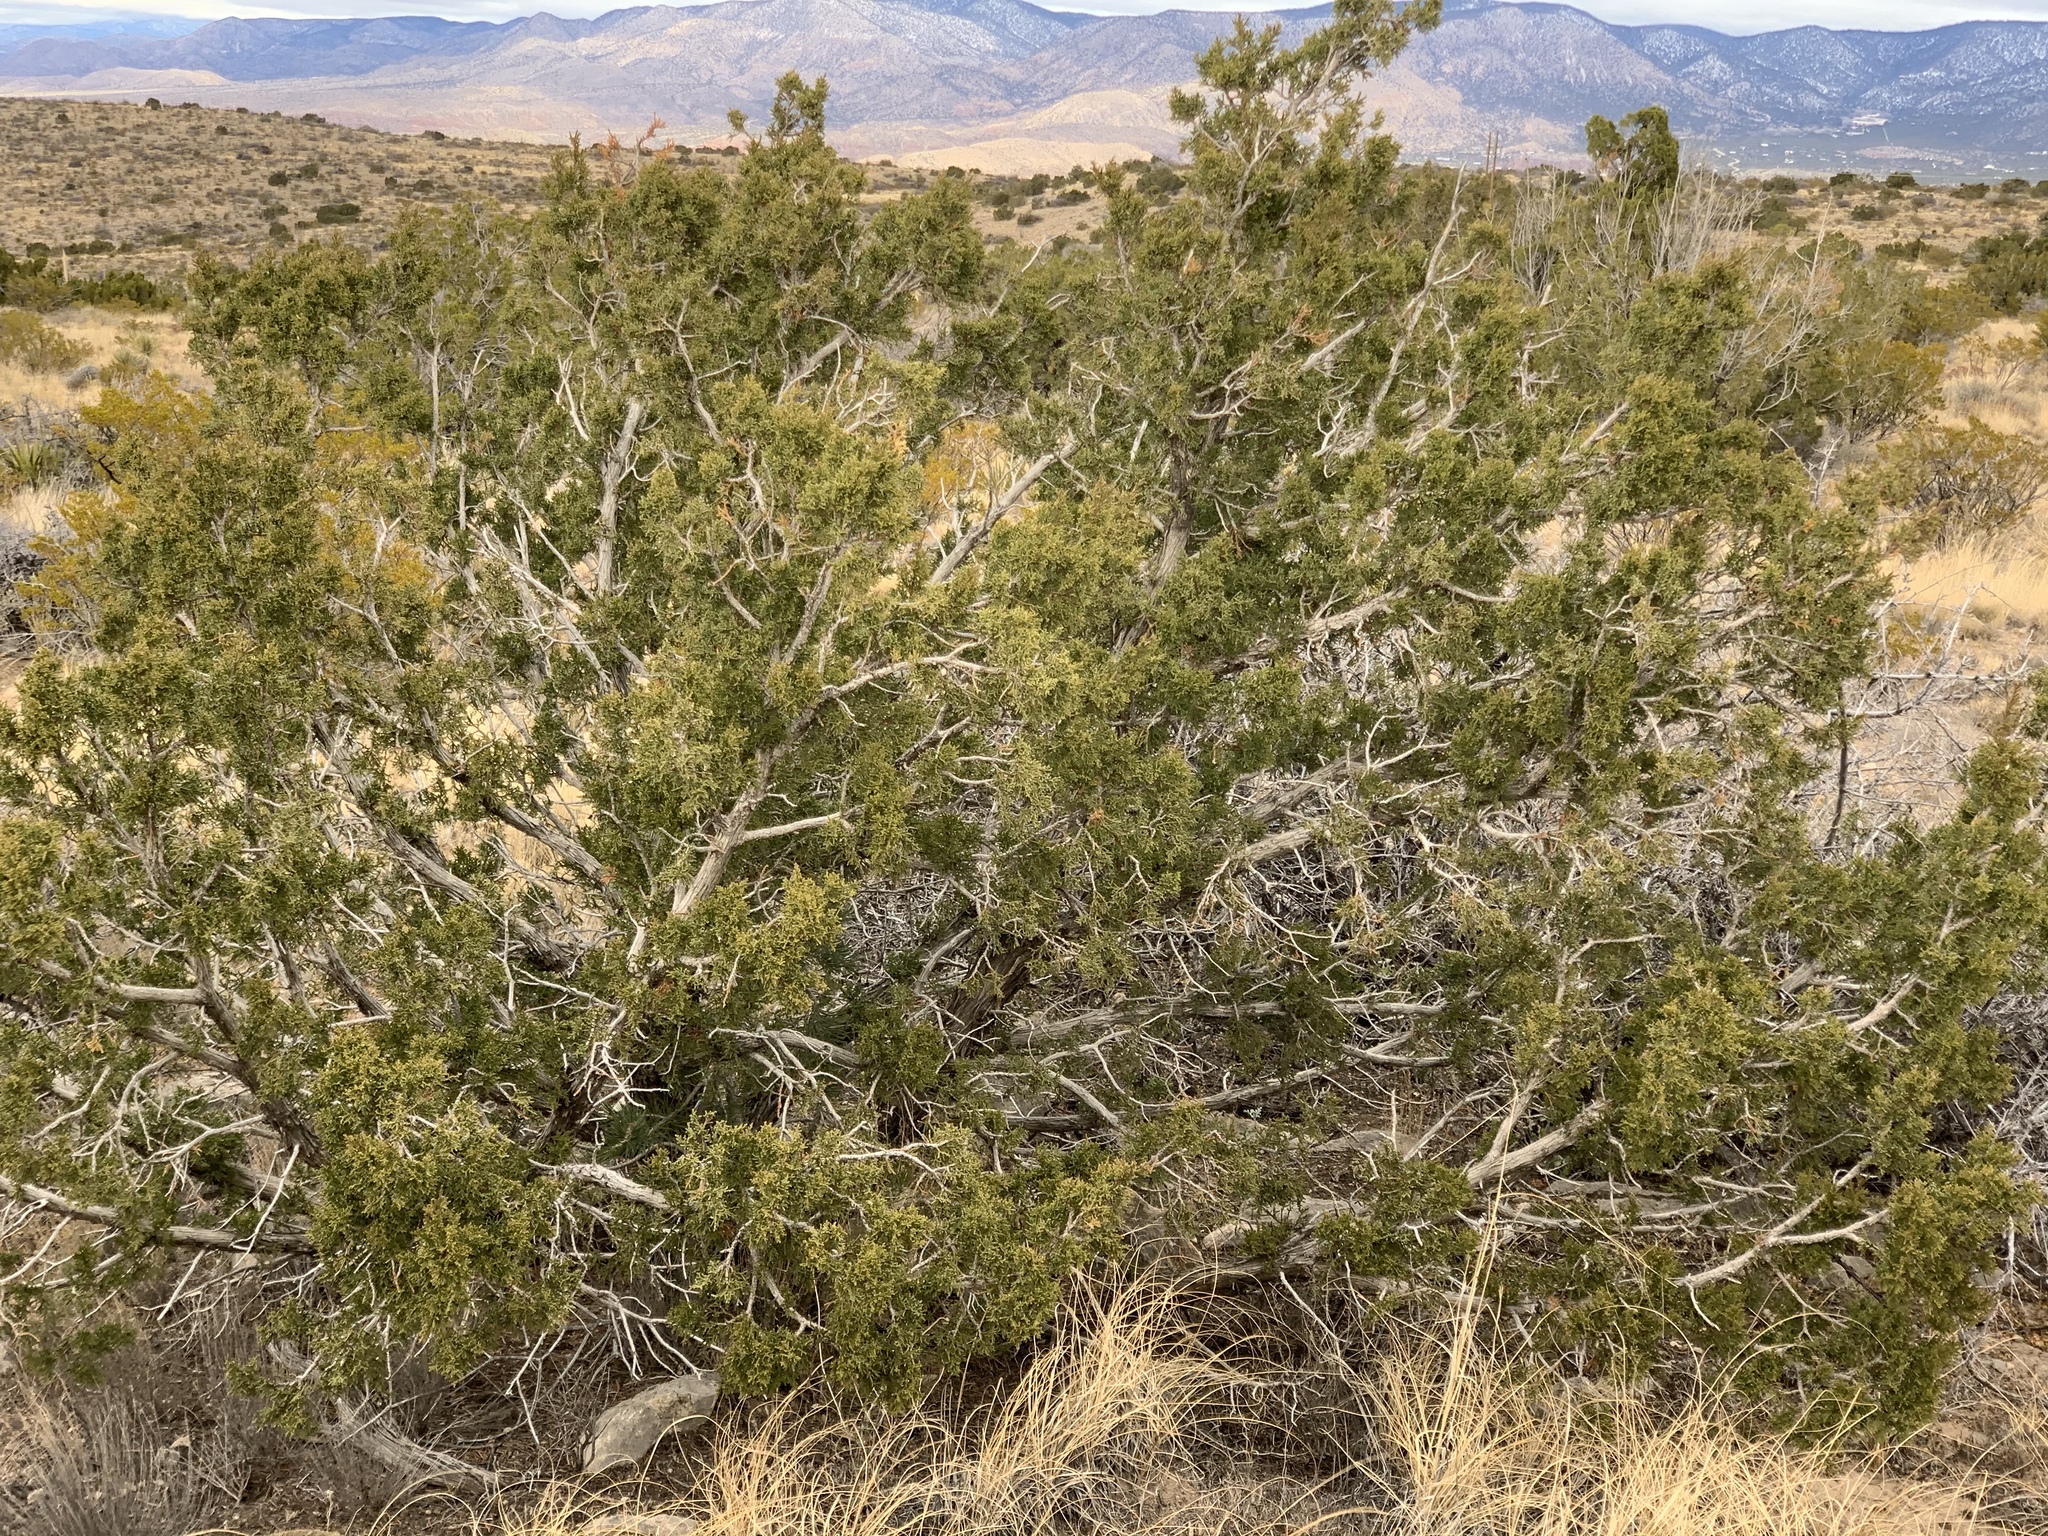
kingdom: Plantae
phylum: Tracheophyta
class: Pinopsida
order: Pinales
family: Cupressaceae
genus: Juniperus
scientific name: Juniperus monosperma
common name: One-seed juniper
